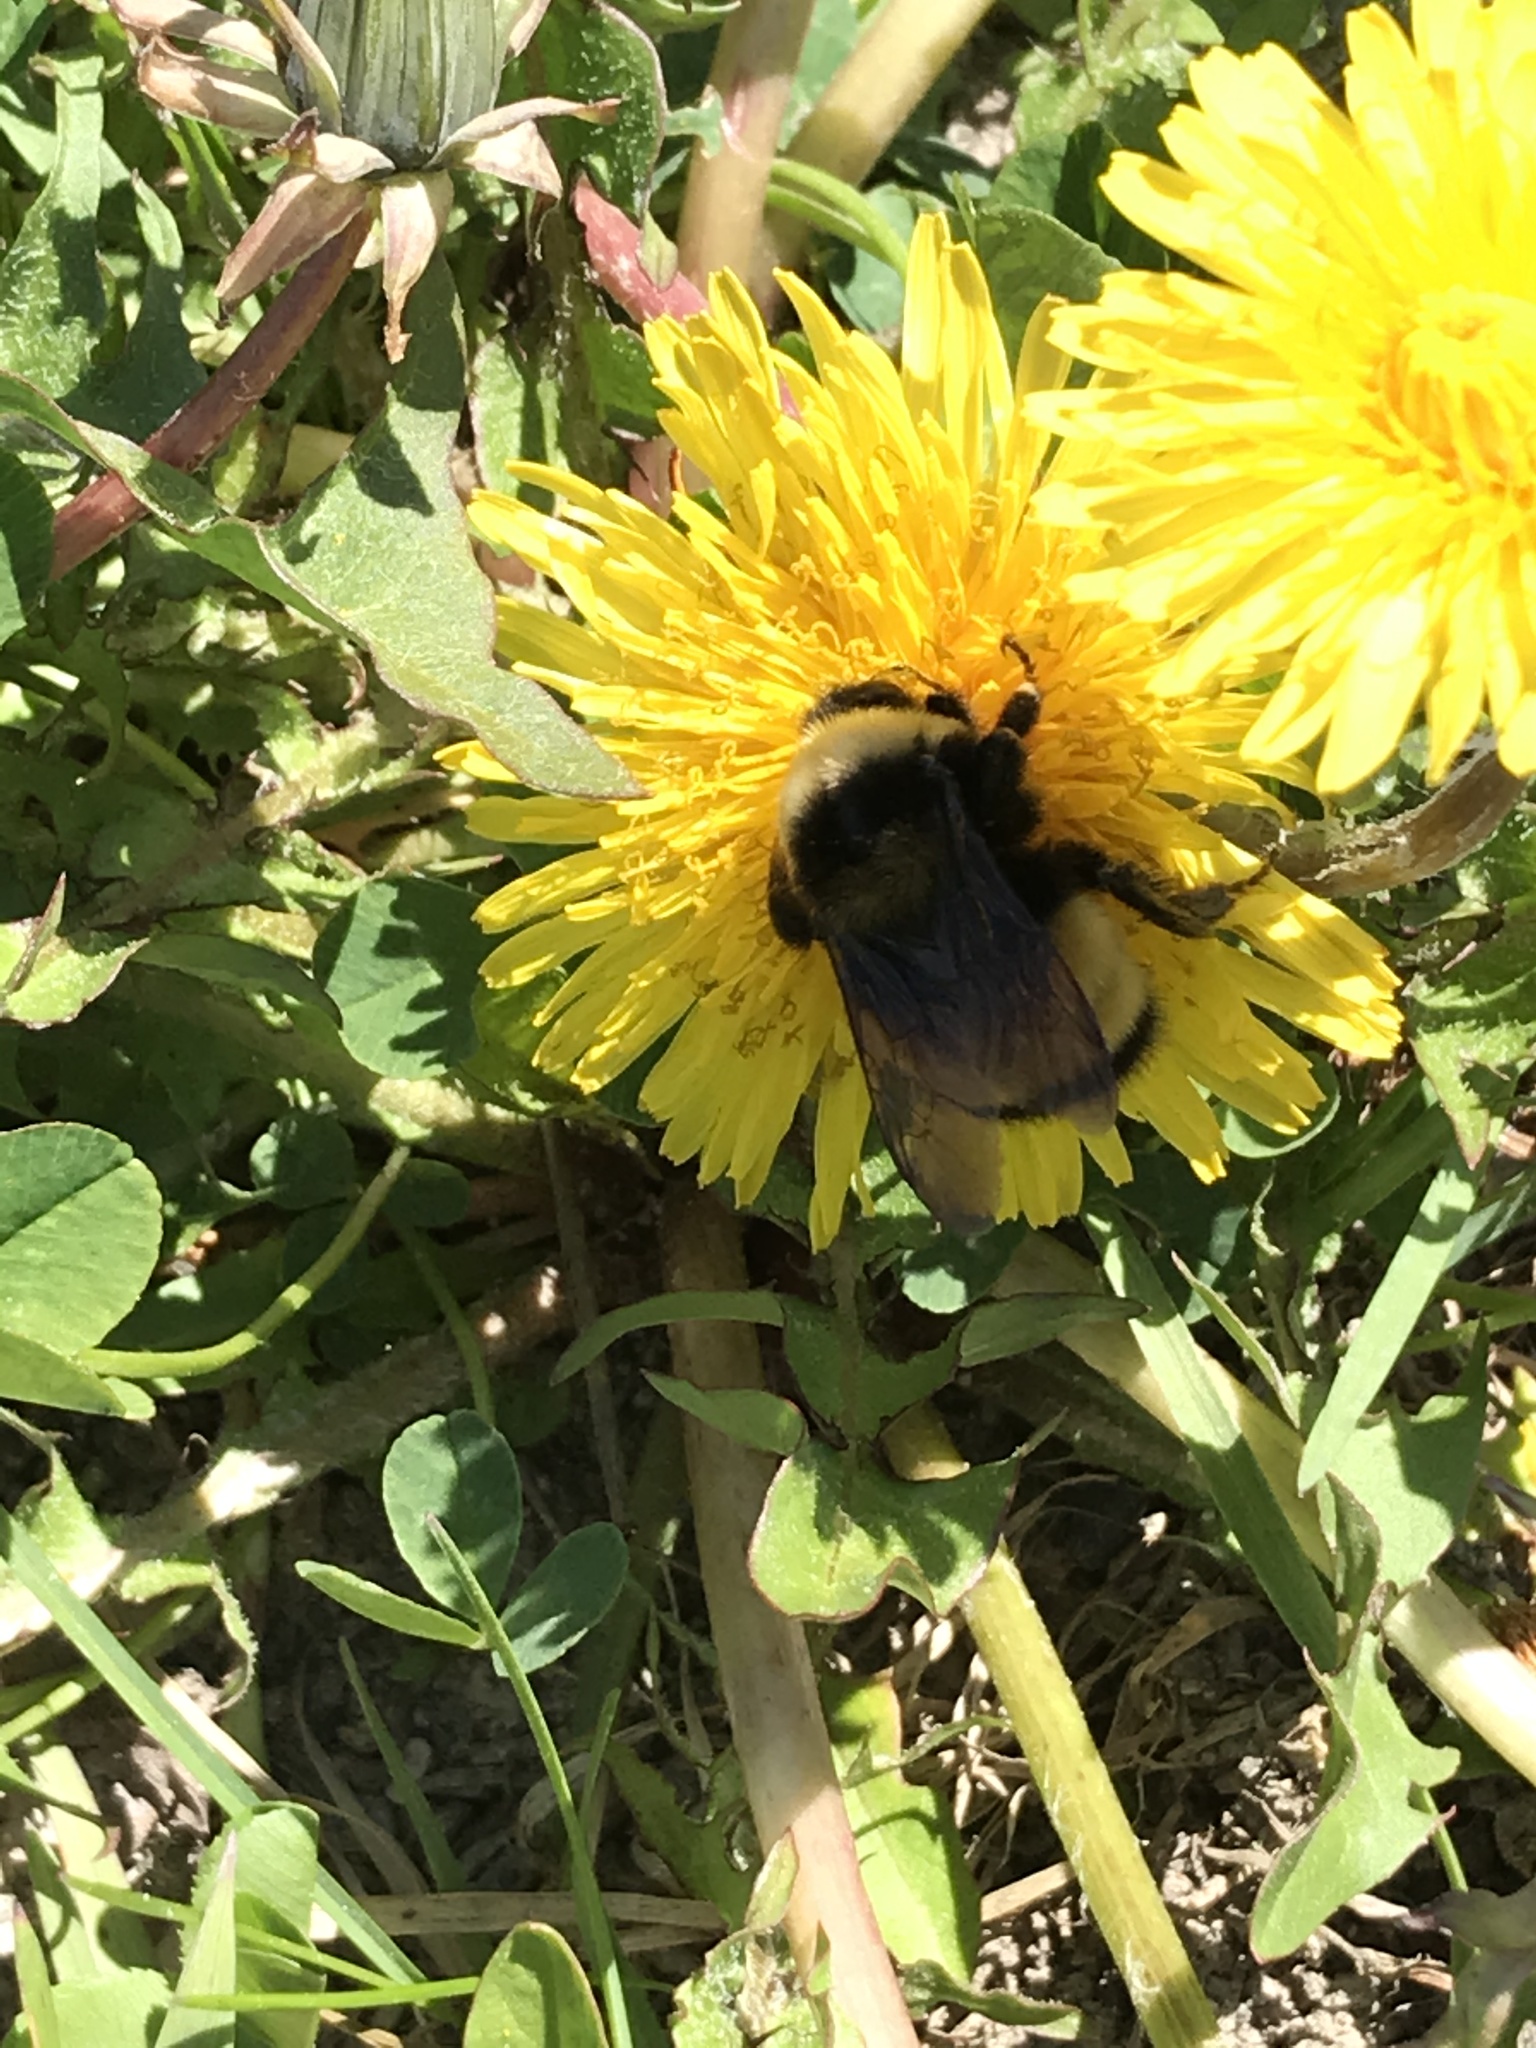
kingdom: Animalia
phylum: Arthropoda
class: Insecta
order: Hymenoptera
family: Apidae
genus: Bombus
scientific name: Bombus terricola
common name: Yellow-banded bumble bee
